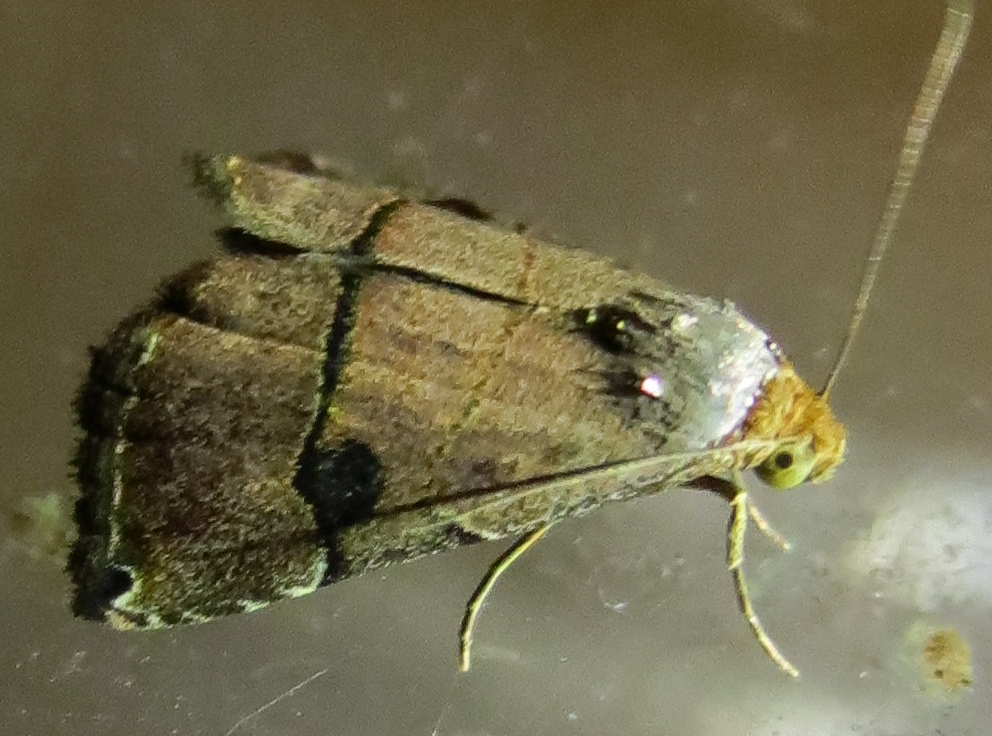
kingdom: Animalia
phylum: Arthropoda
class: Insecta
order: Lepidoptera
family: Noctuidae
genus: Abacena
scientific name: Abacena mundula
